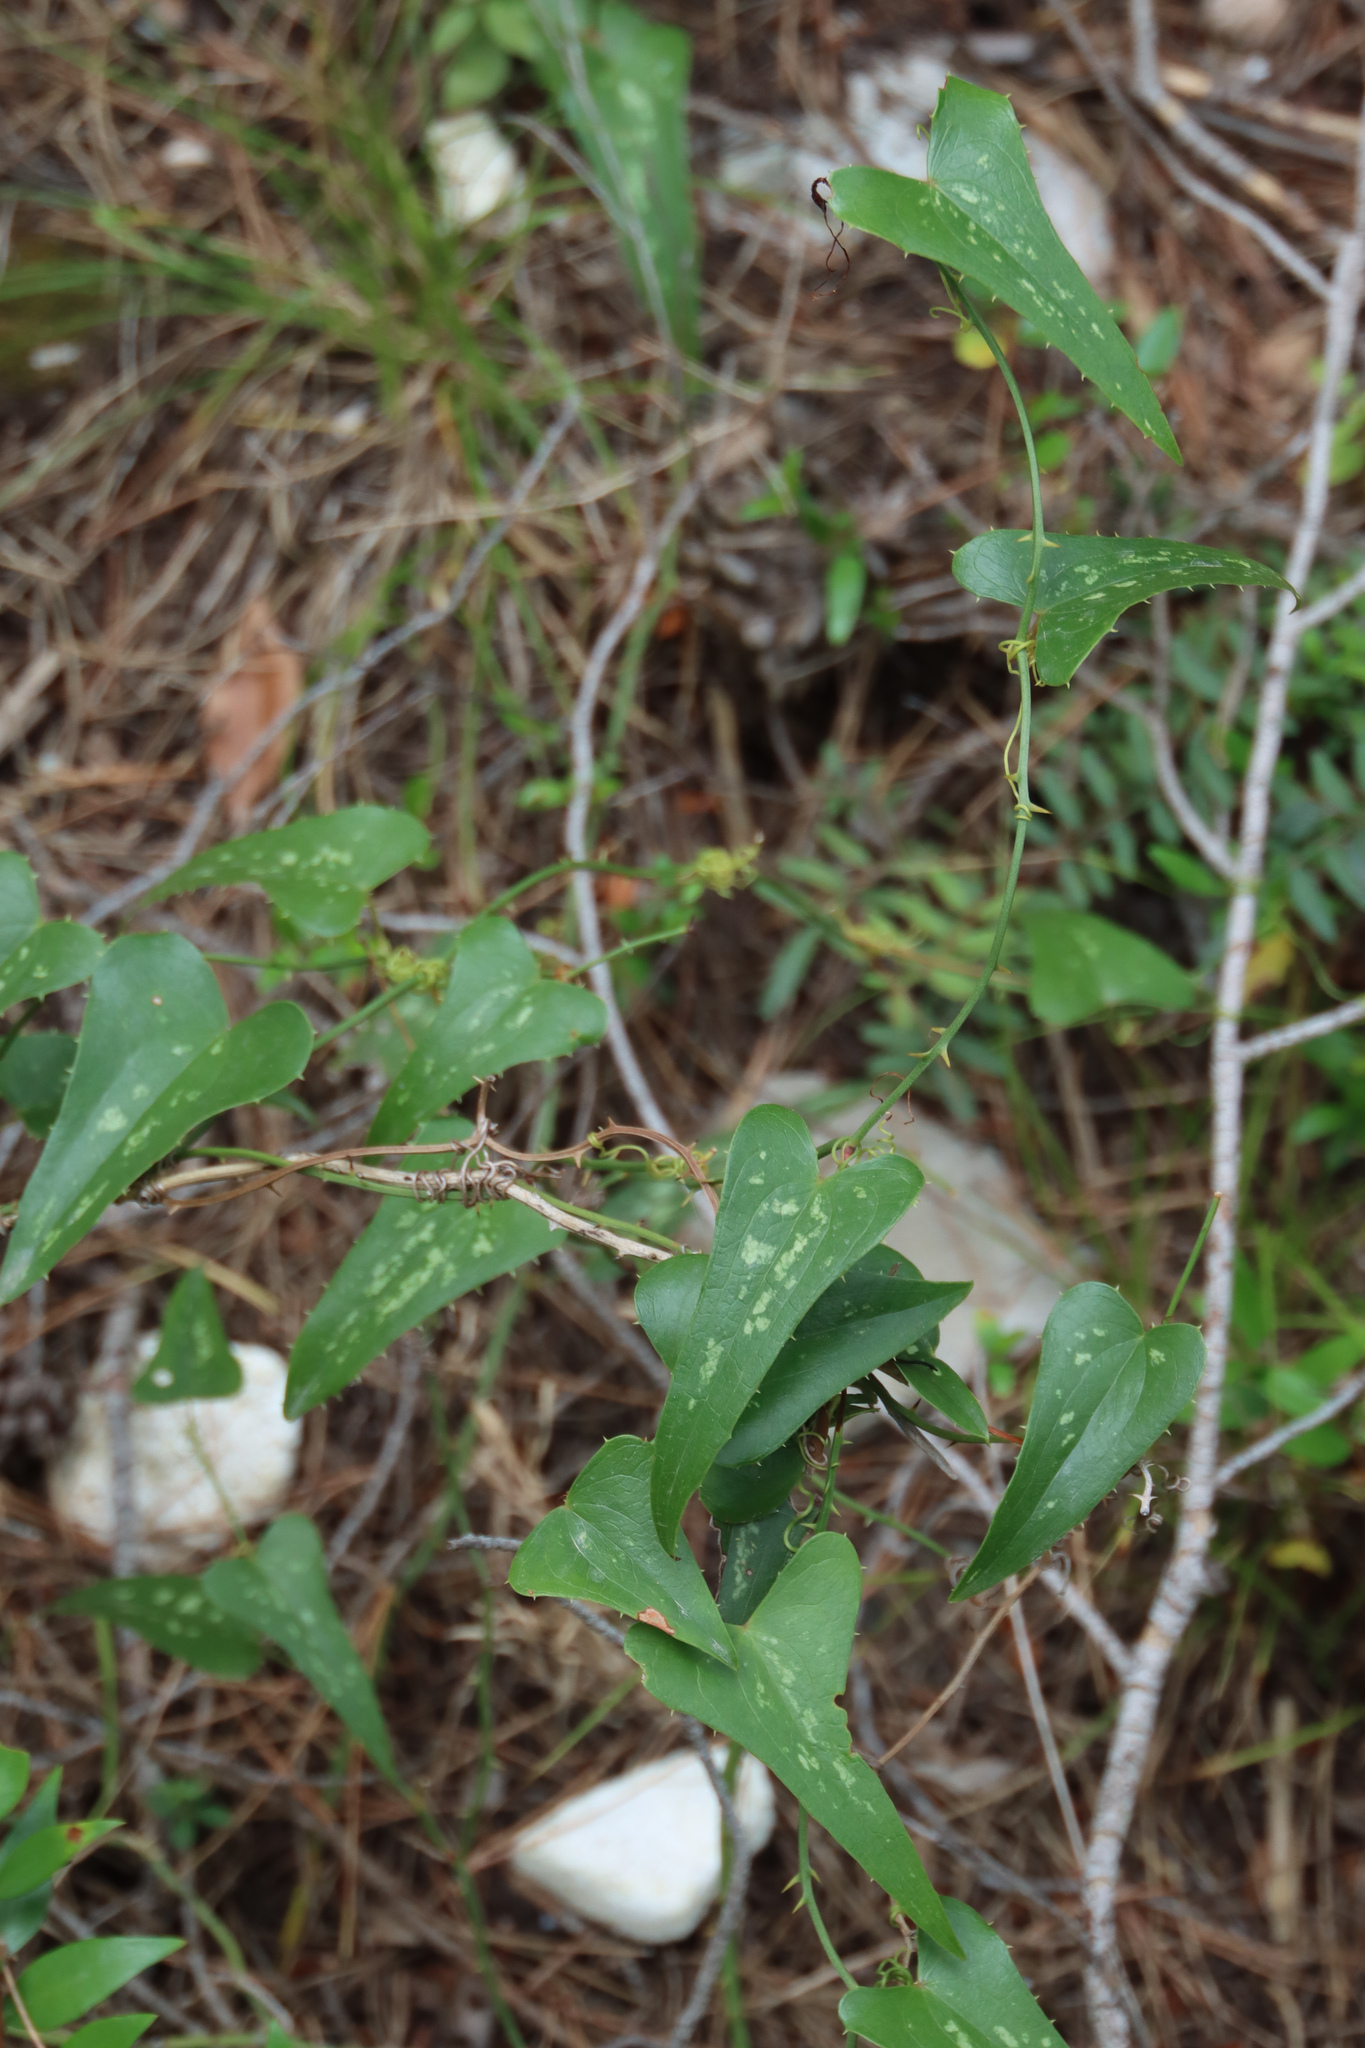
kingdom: Plantae
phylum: Tracheophyta
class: Liliopsida
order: Liliales
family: Smilacaceae
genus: Smilax
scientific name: Smilax aspera
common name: Common smilax
